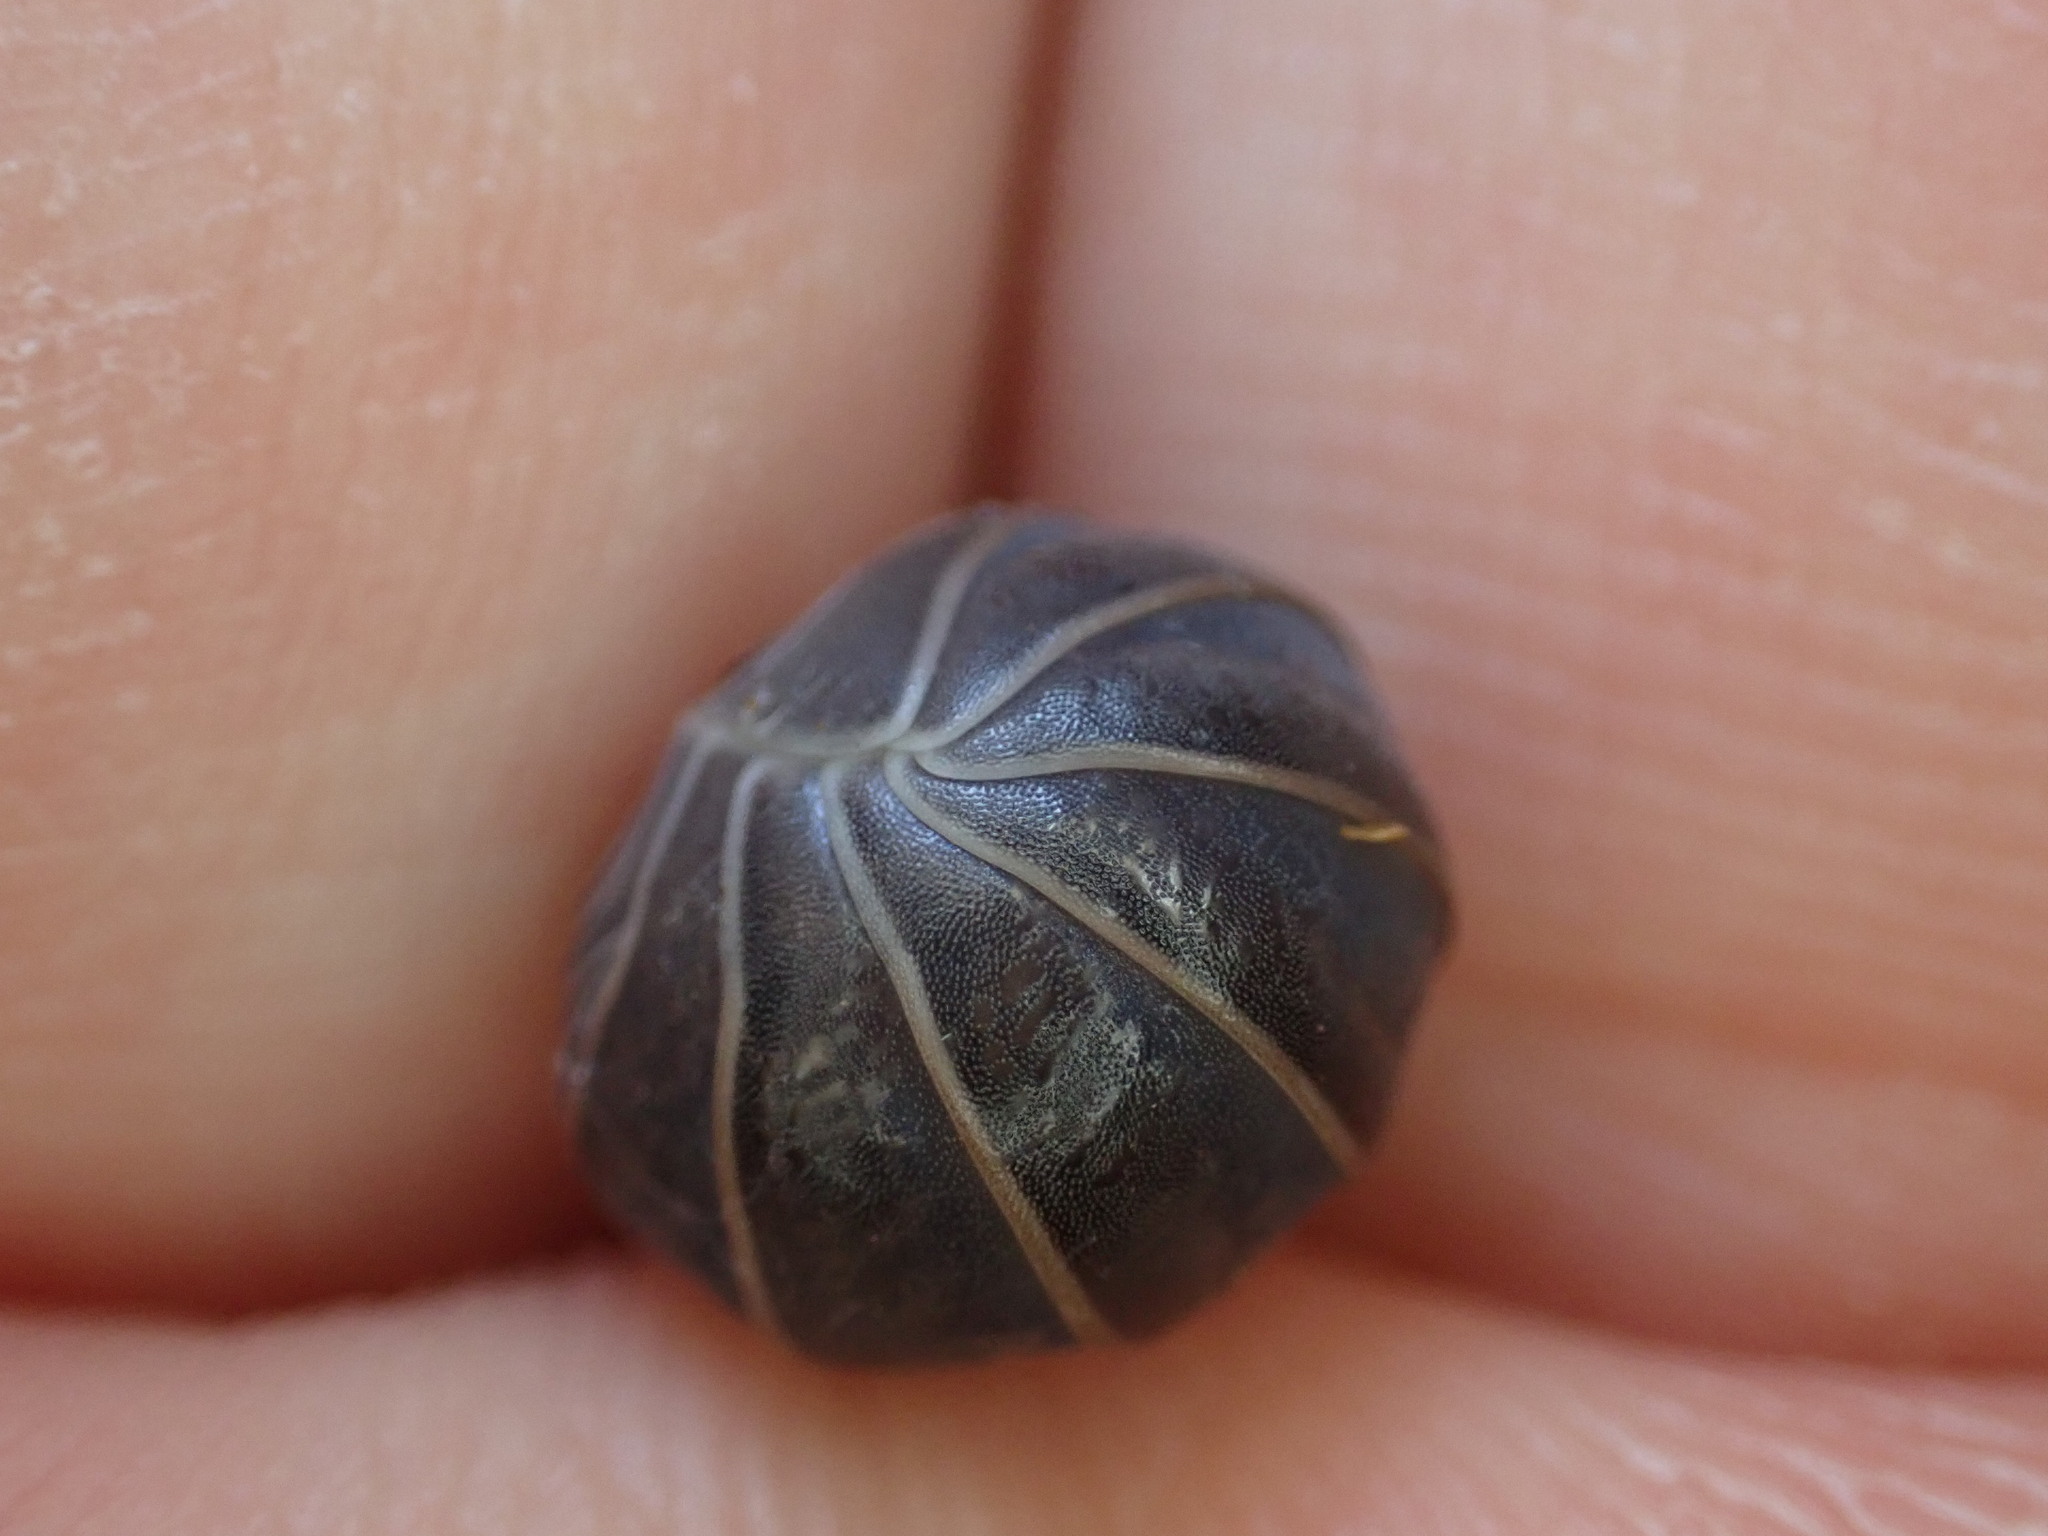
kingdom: Animalia
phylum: Arthropoda
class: Malacostraca
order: Isopoda
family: Armadillidae
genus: Armadillo
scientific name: Armadillo officinalis
